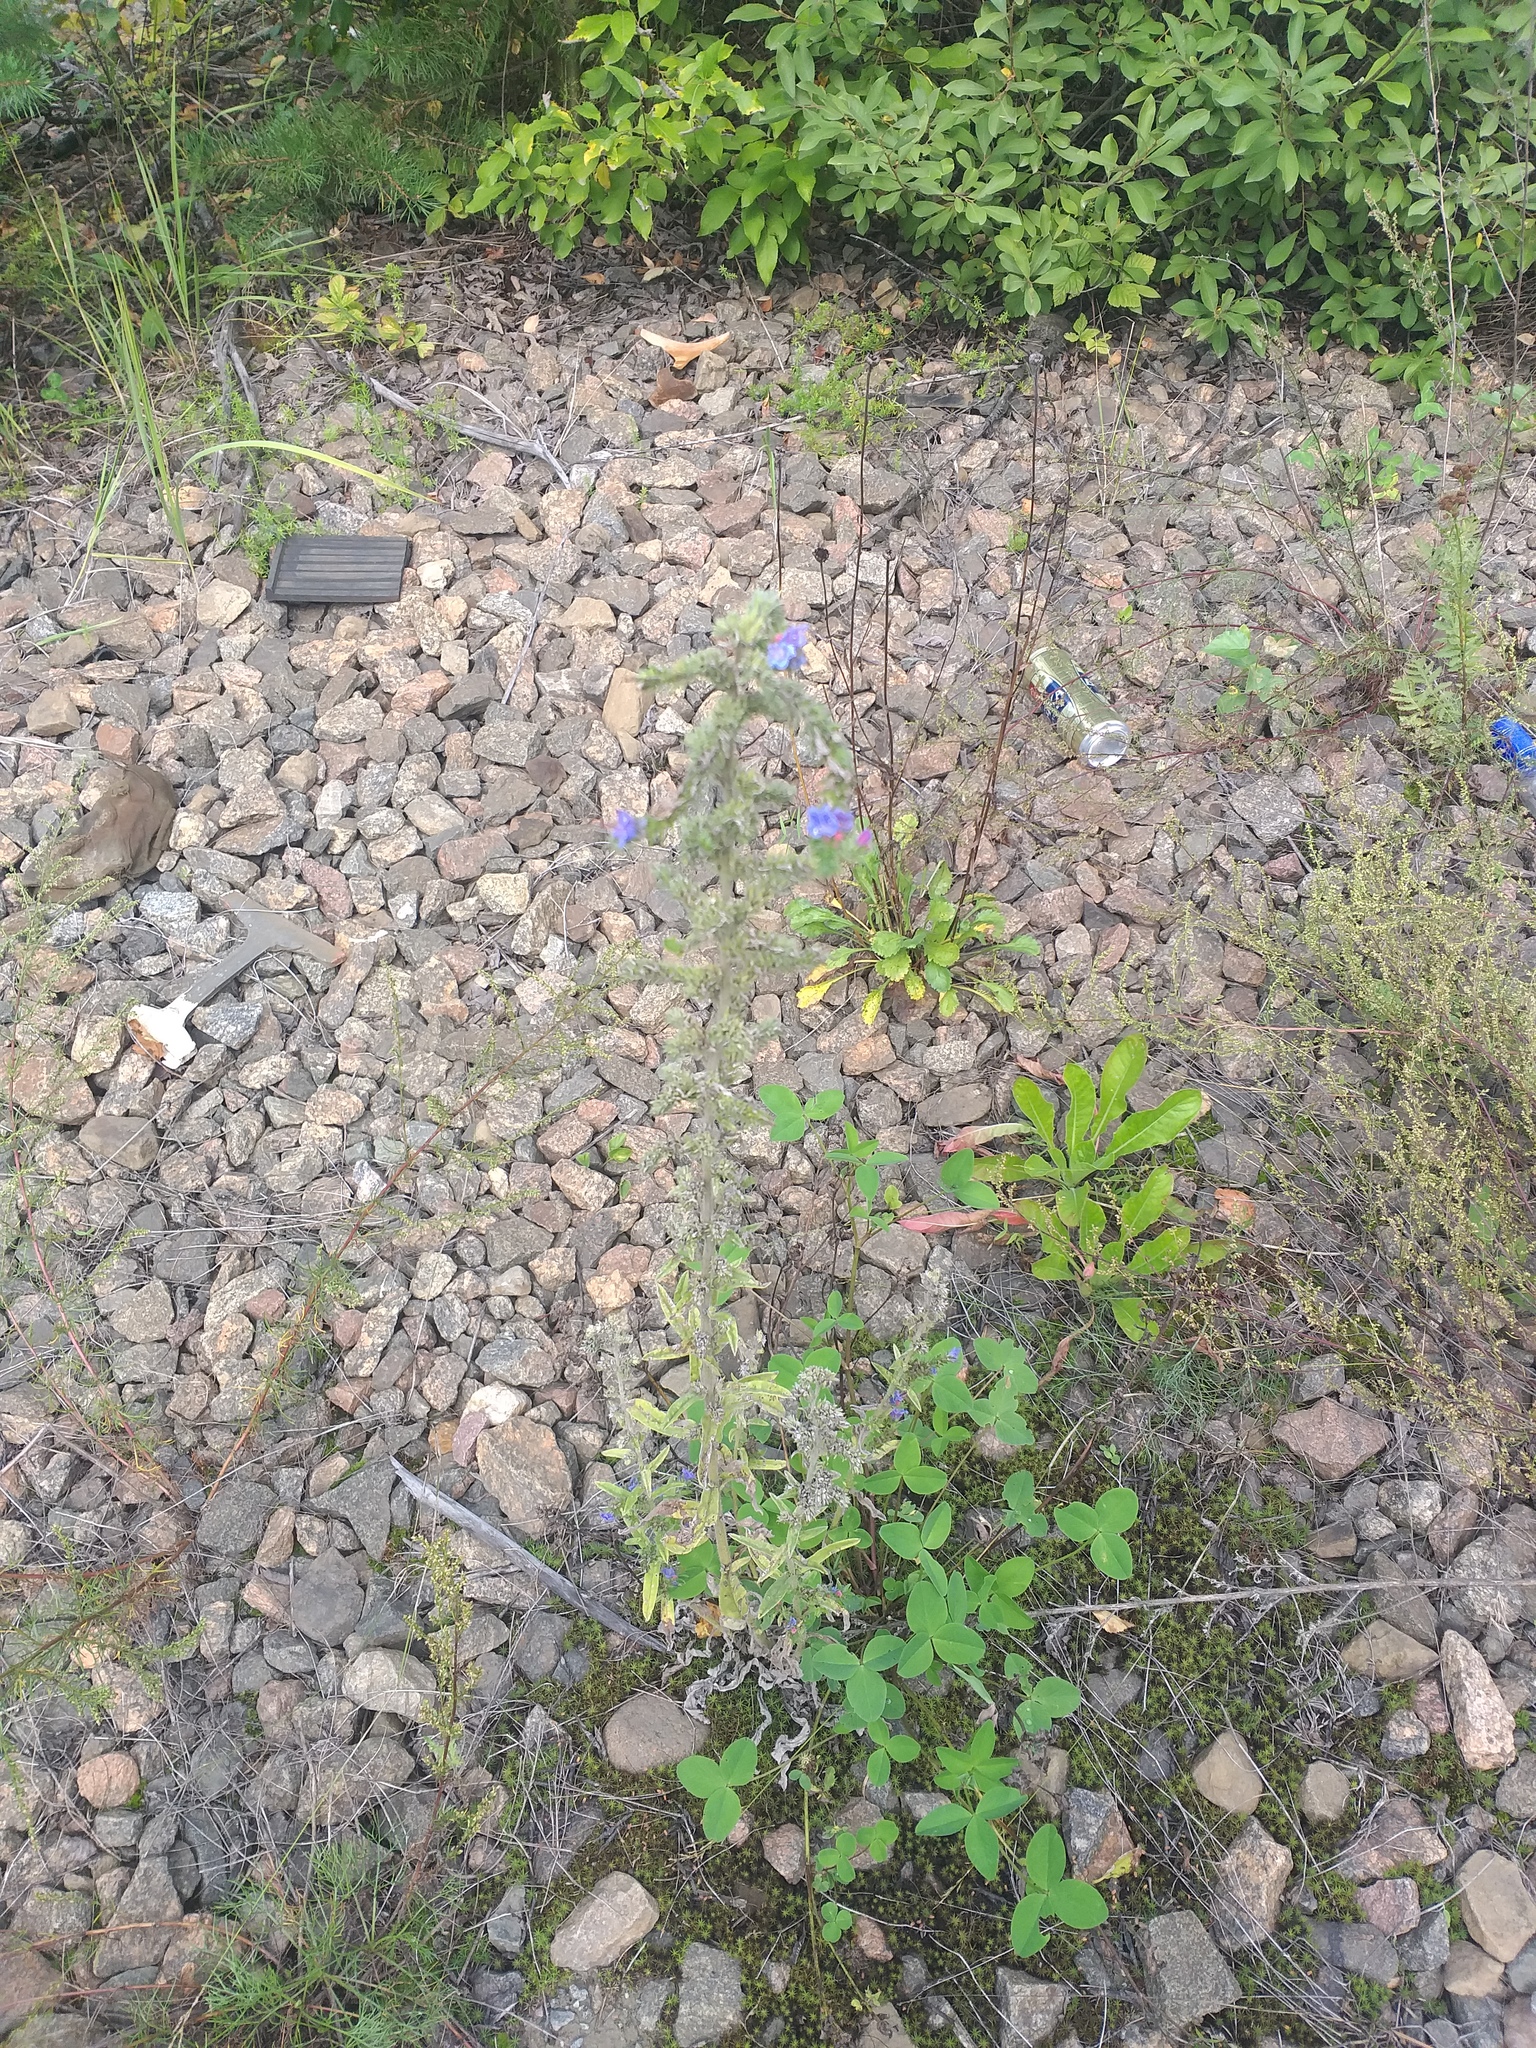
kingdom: Plantae
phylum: Tracheophyta
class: Magnoliopsida
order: Boraginales
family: Boraginaceae
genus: Echium
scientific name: Echium vulgare
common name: Common viper's bugloss
